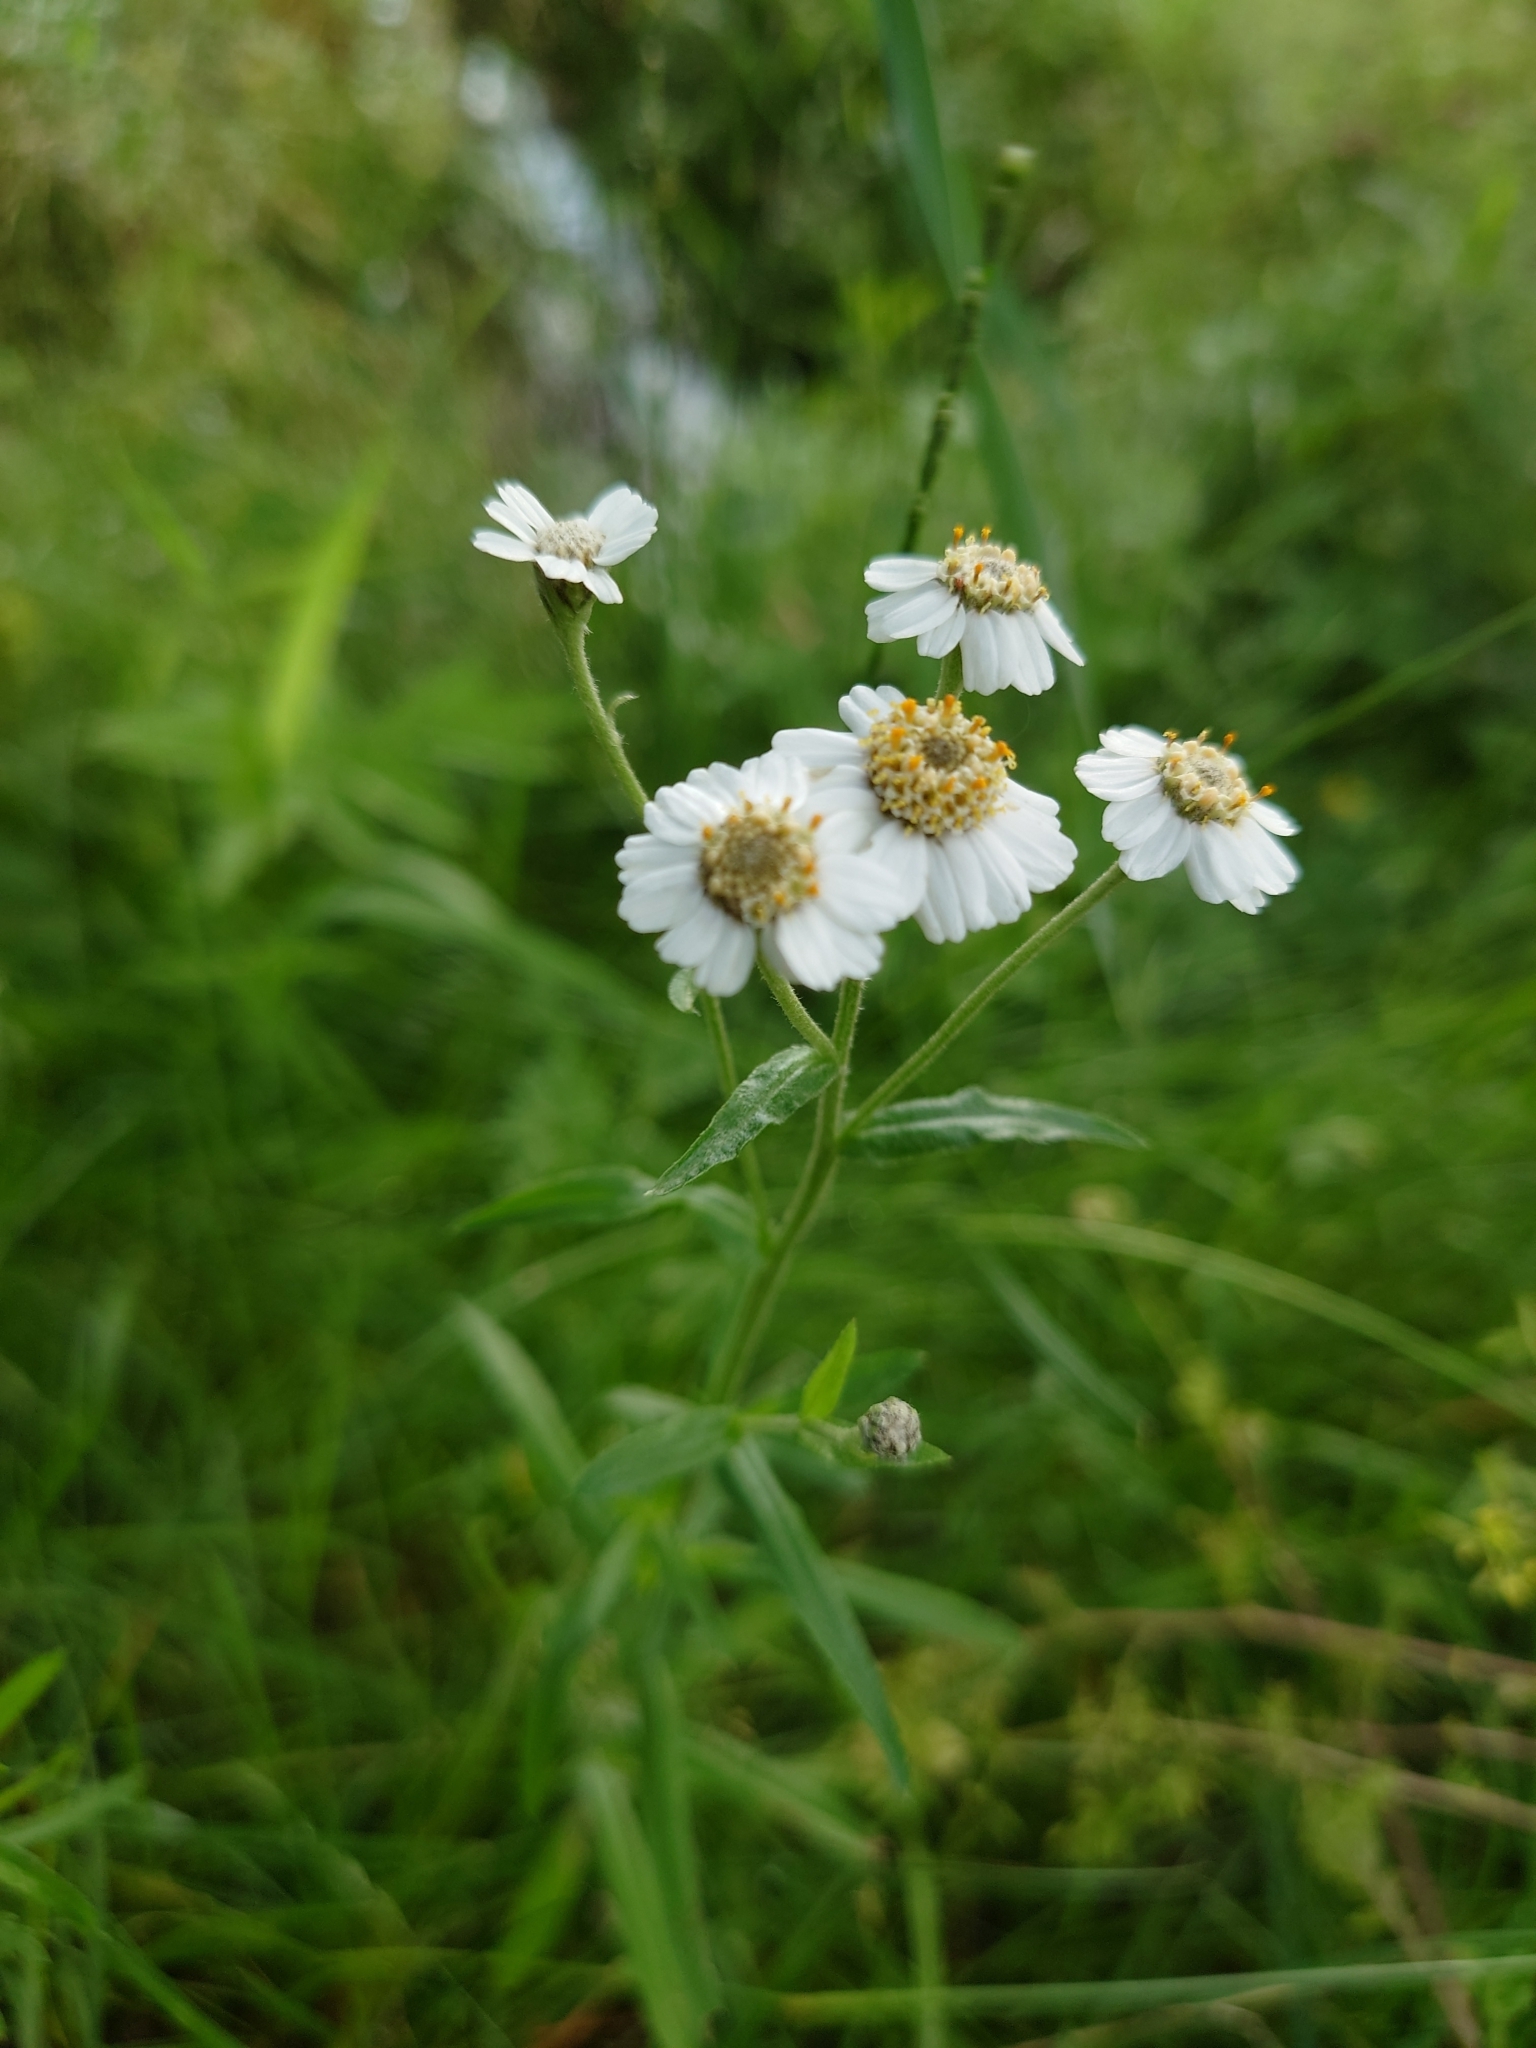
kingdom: Plantae
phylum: Tracheophyta
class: Magnoliopsida
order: Asterales
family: Asteraceae
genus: Achillea
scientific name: Achillea ptarmica
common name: Sneezeweed
